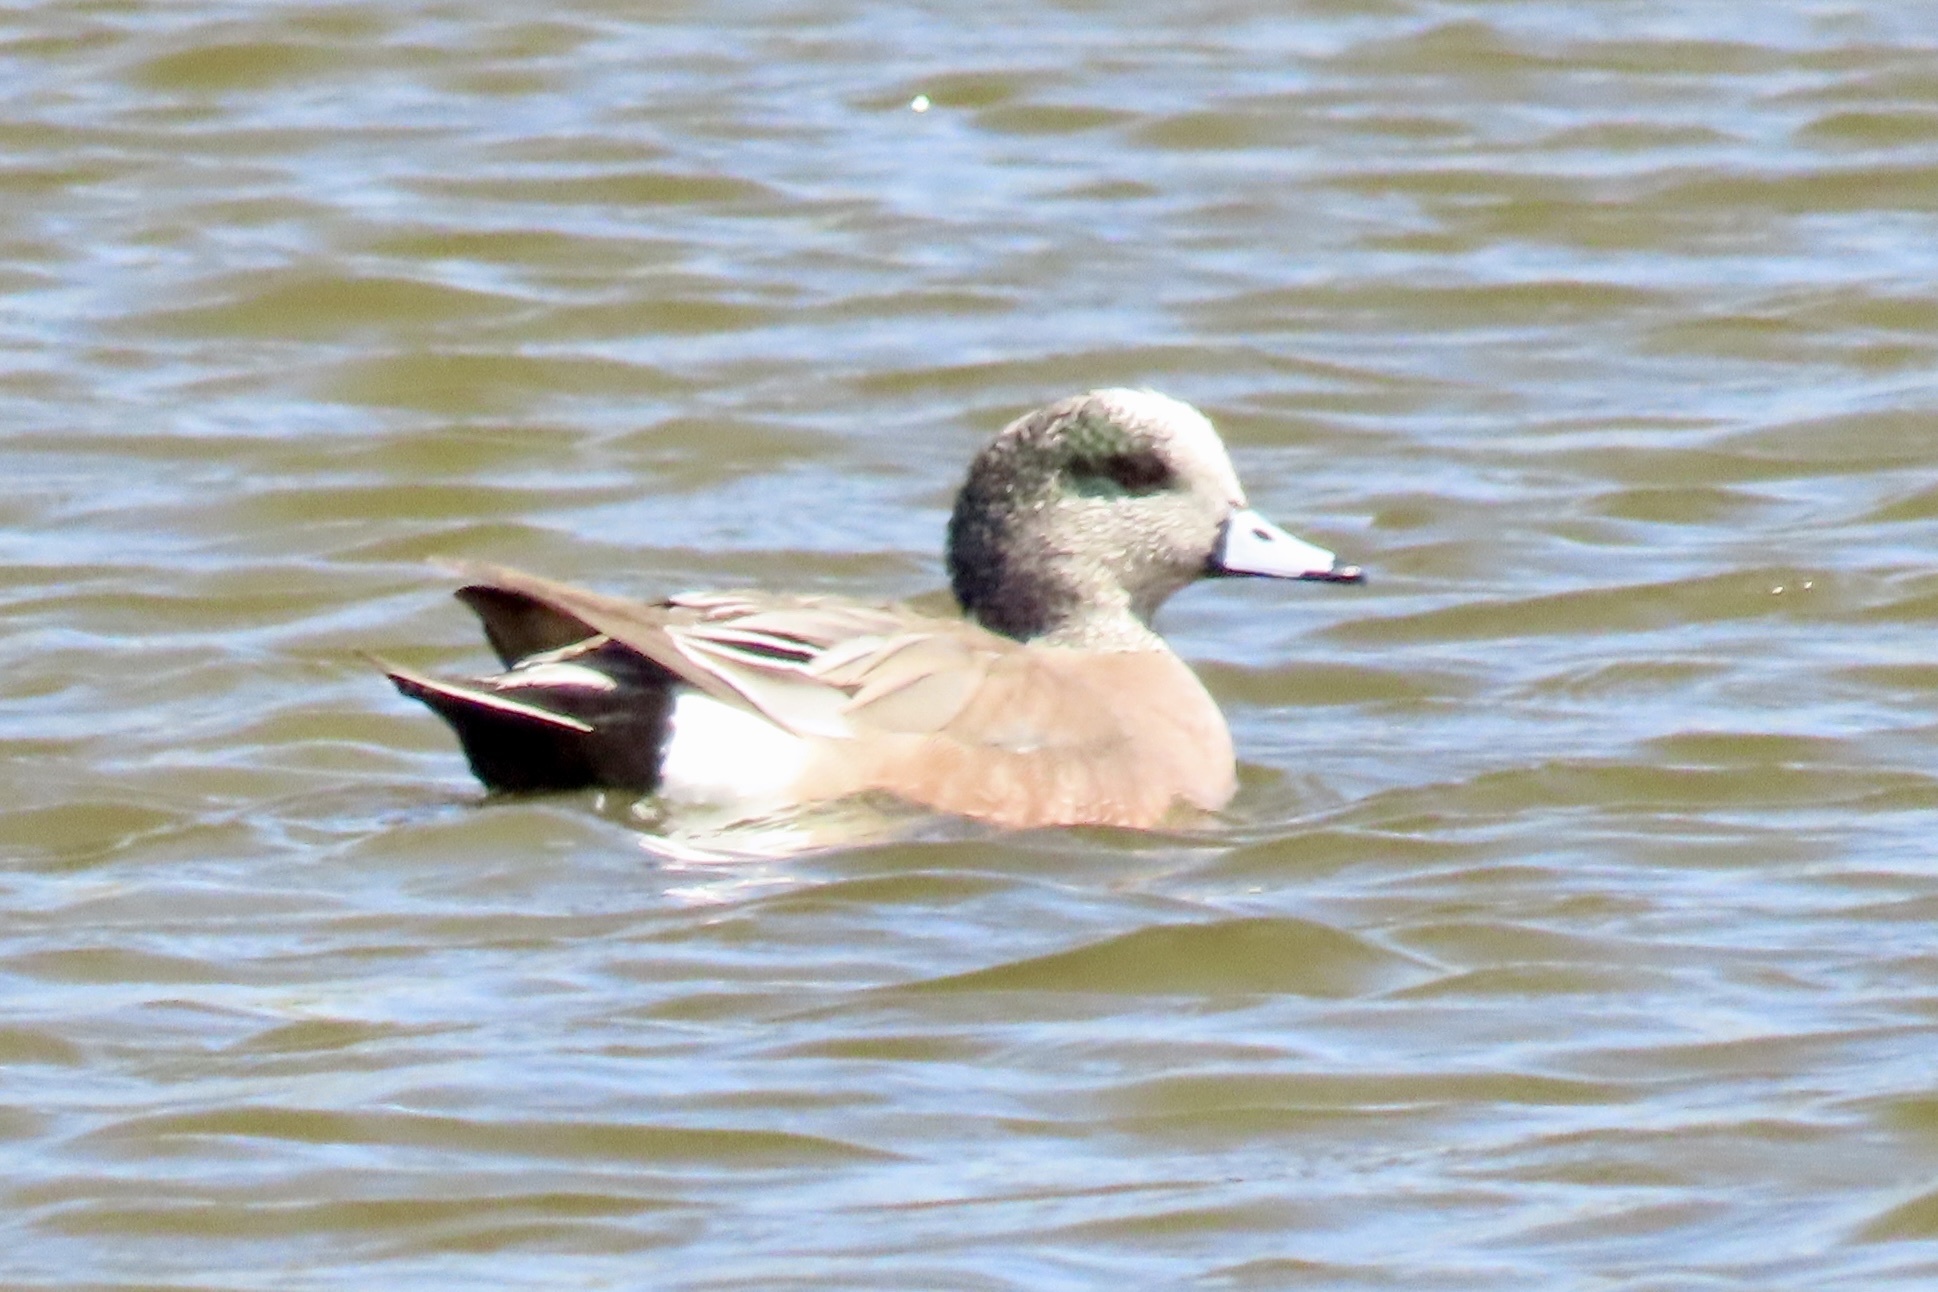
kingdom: Animalia
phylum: Chordata
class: Aves
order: Anseriformes
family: Anatidae
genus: Mareca
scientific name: Mareca americana
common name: American wigeon
